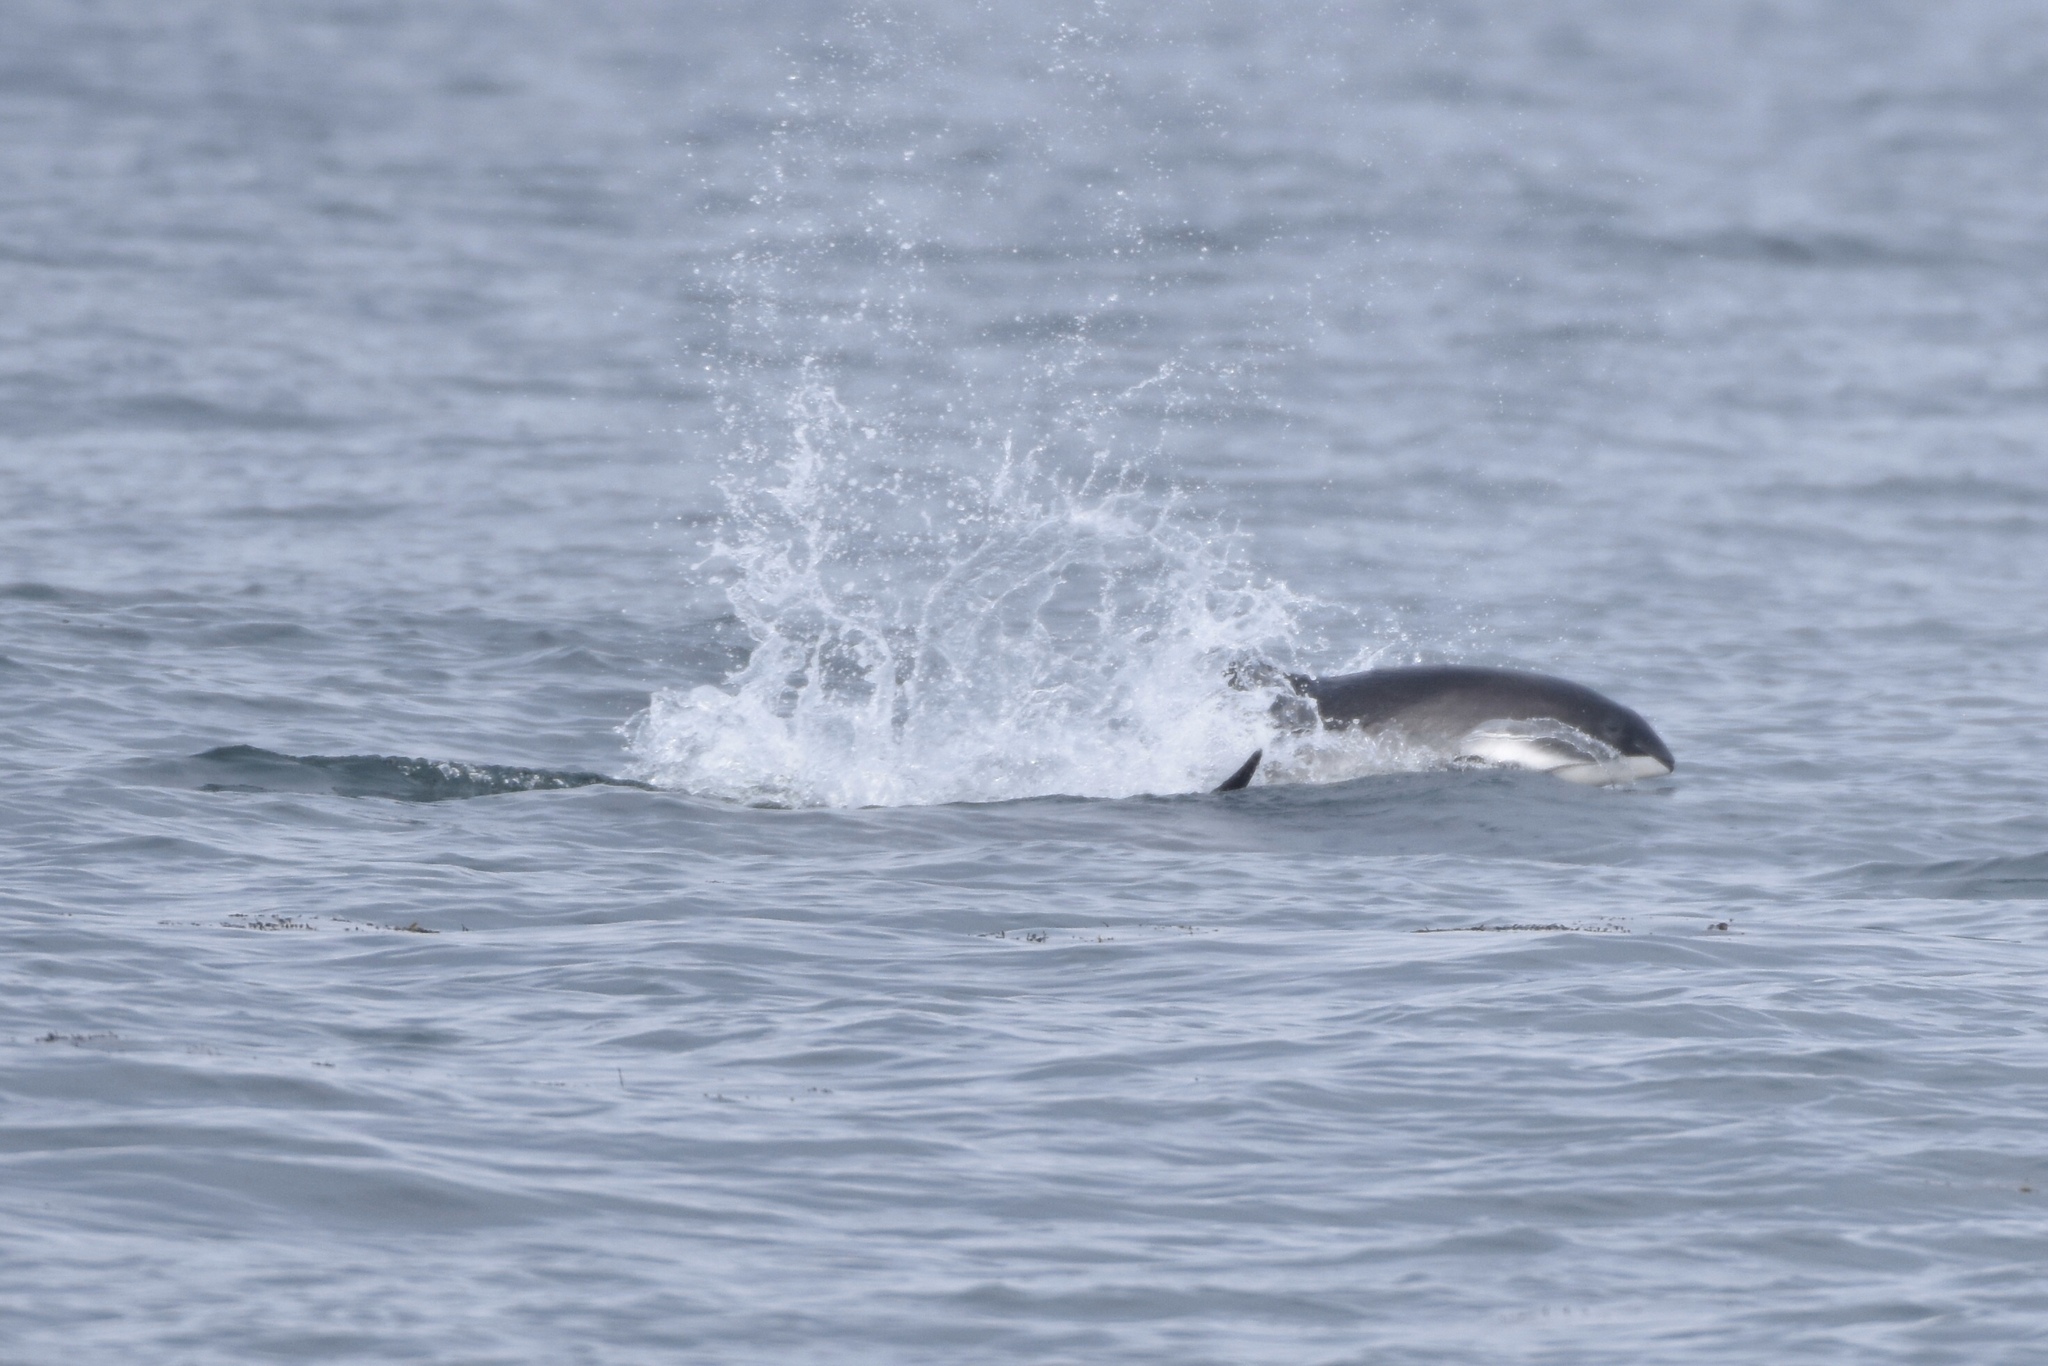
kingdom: Animalia
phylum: Chordata
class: Mammalia
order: Cetacea
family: Phocoenidae
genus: Phocoena
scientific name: Phocoena phocoena
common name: Harbor porpoise
